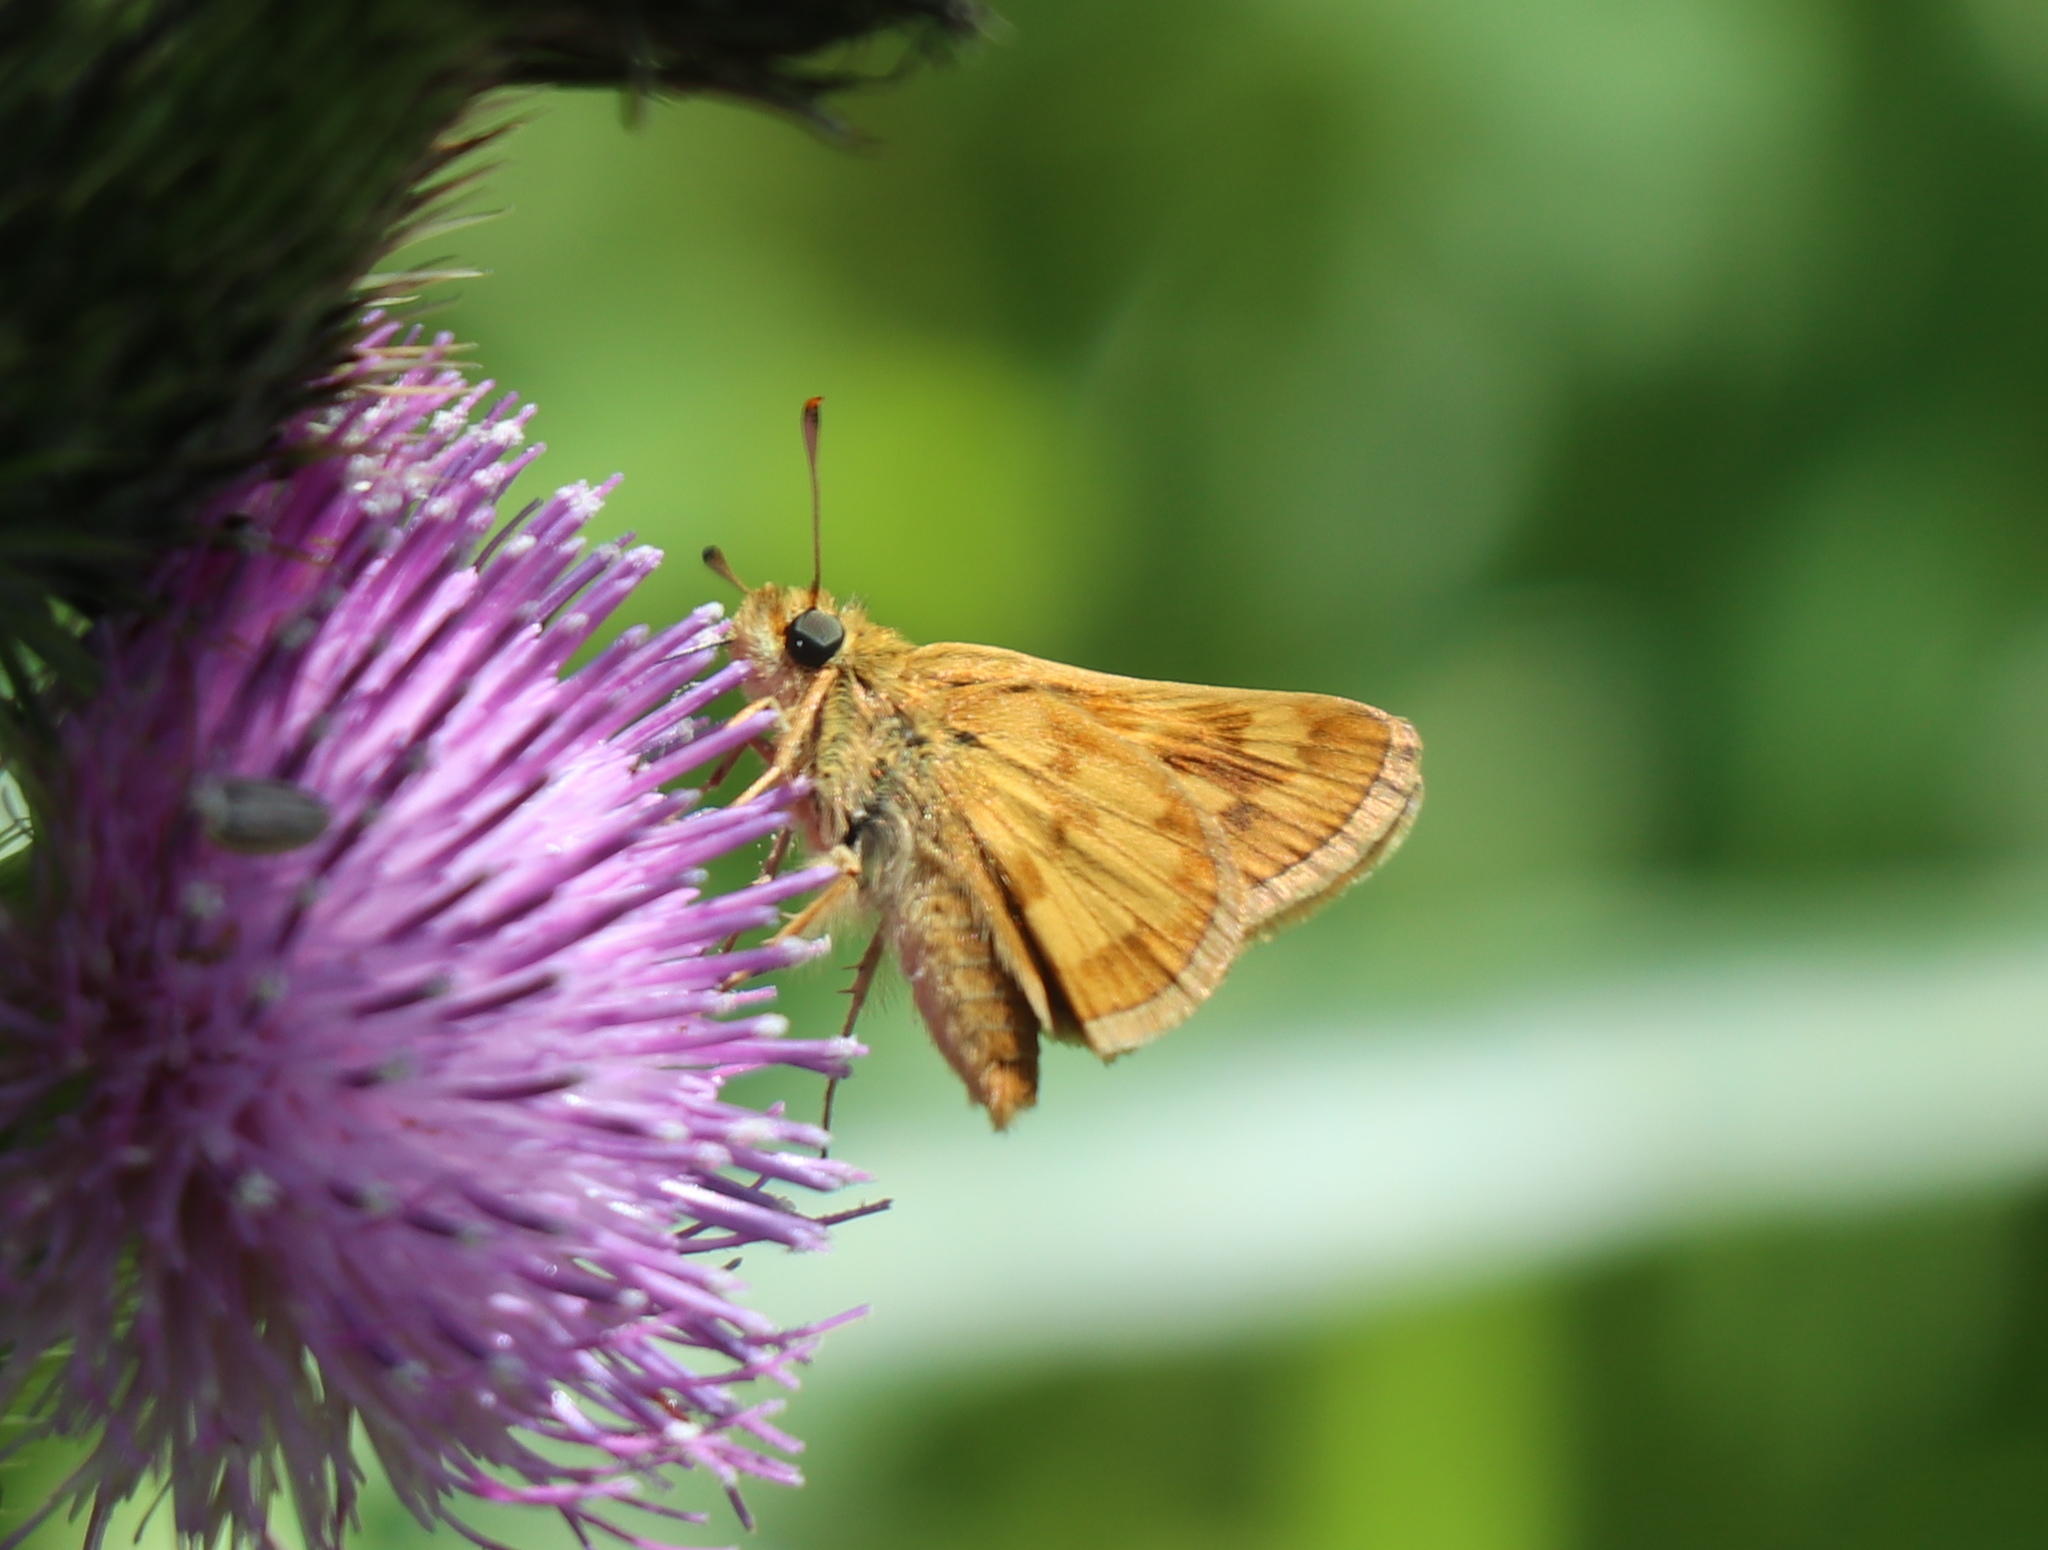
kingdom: Animalia
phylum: Arthropoda
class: Insecta
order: Lepidoptera
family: Hesperiidae
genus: Polites
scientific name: Polites coras
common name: Peck's skipper
